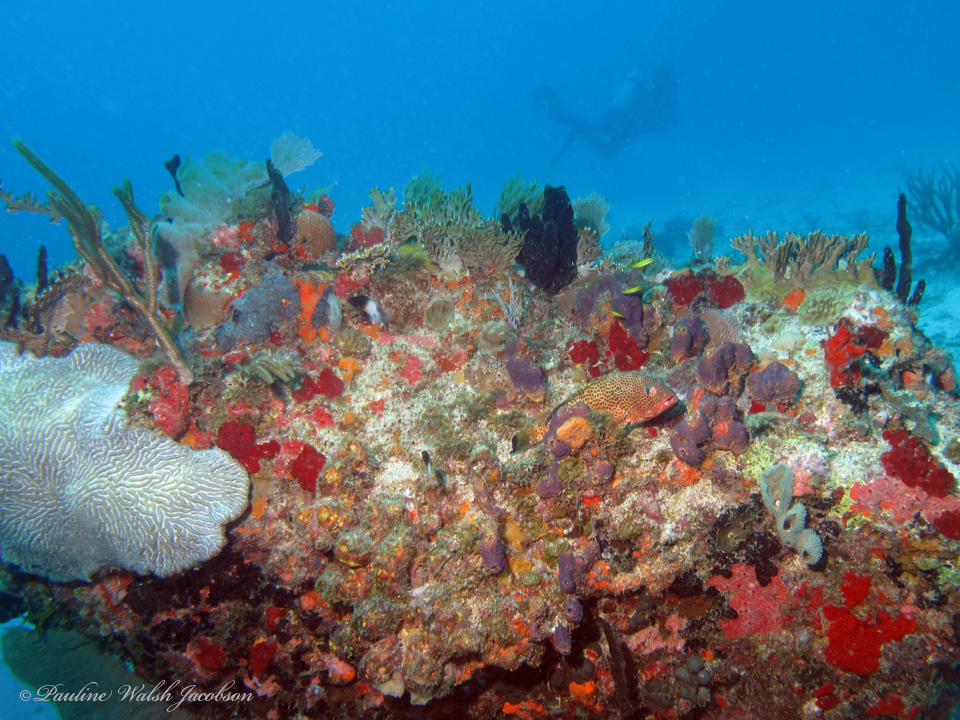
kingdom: Animalia
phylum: Chordata
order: Perciformes
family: Serranidae
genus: Epinephelus
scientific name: Epinephelus guttatus
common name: Red hind
